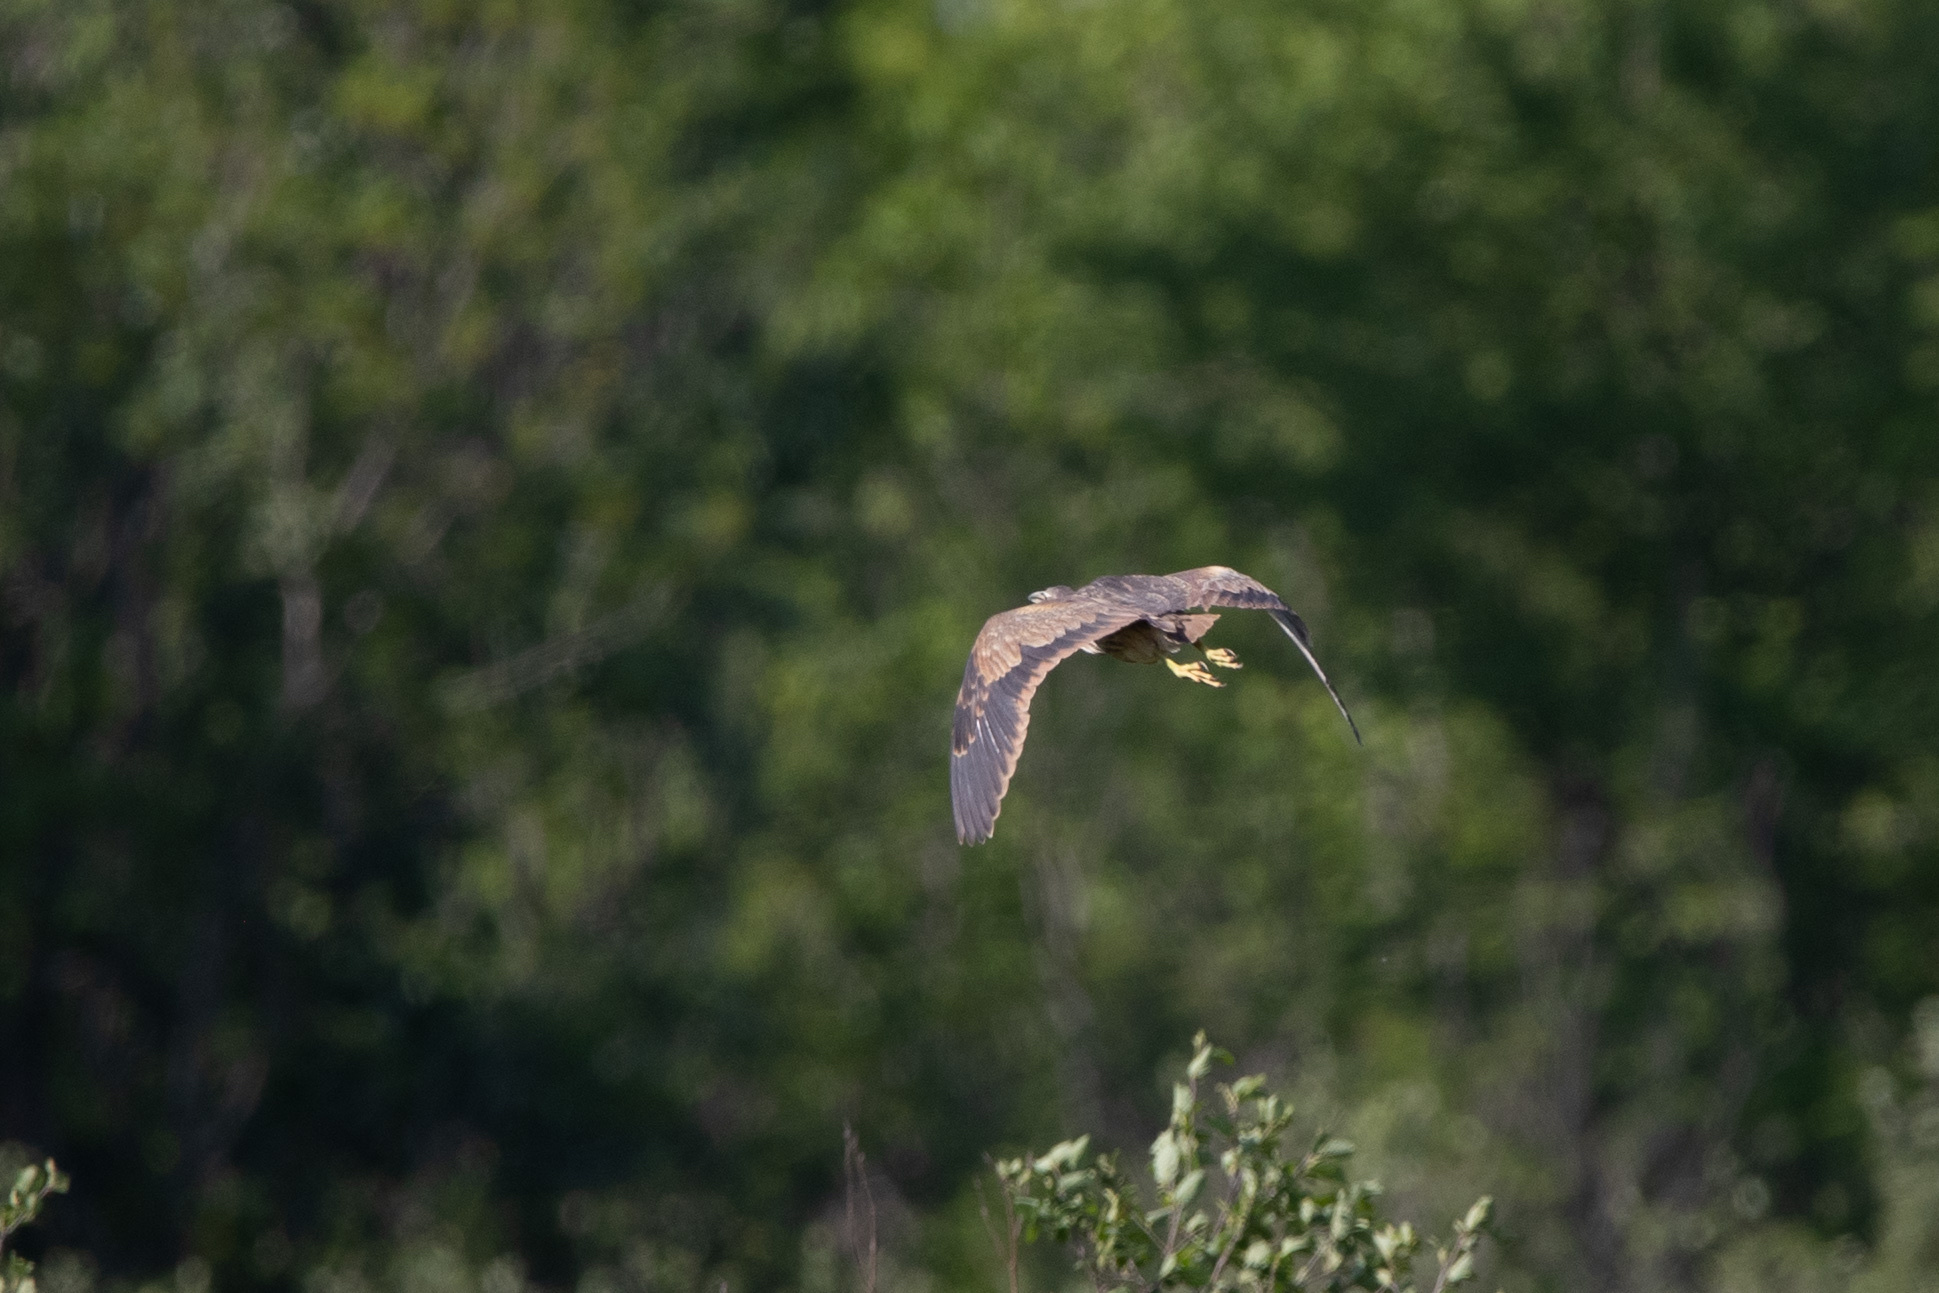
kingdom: Animalia
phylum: Chordata
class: Aves
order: Pelecaniformes
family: Ardeidae
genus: Botaurus
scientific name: Botaurus lentiginosus
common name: American bittern
